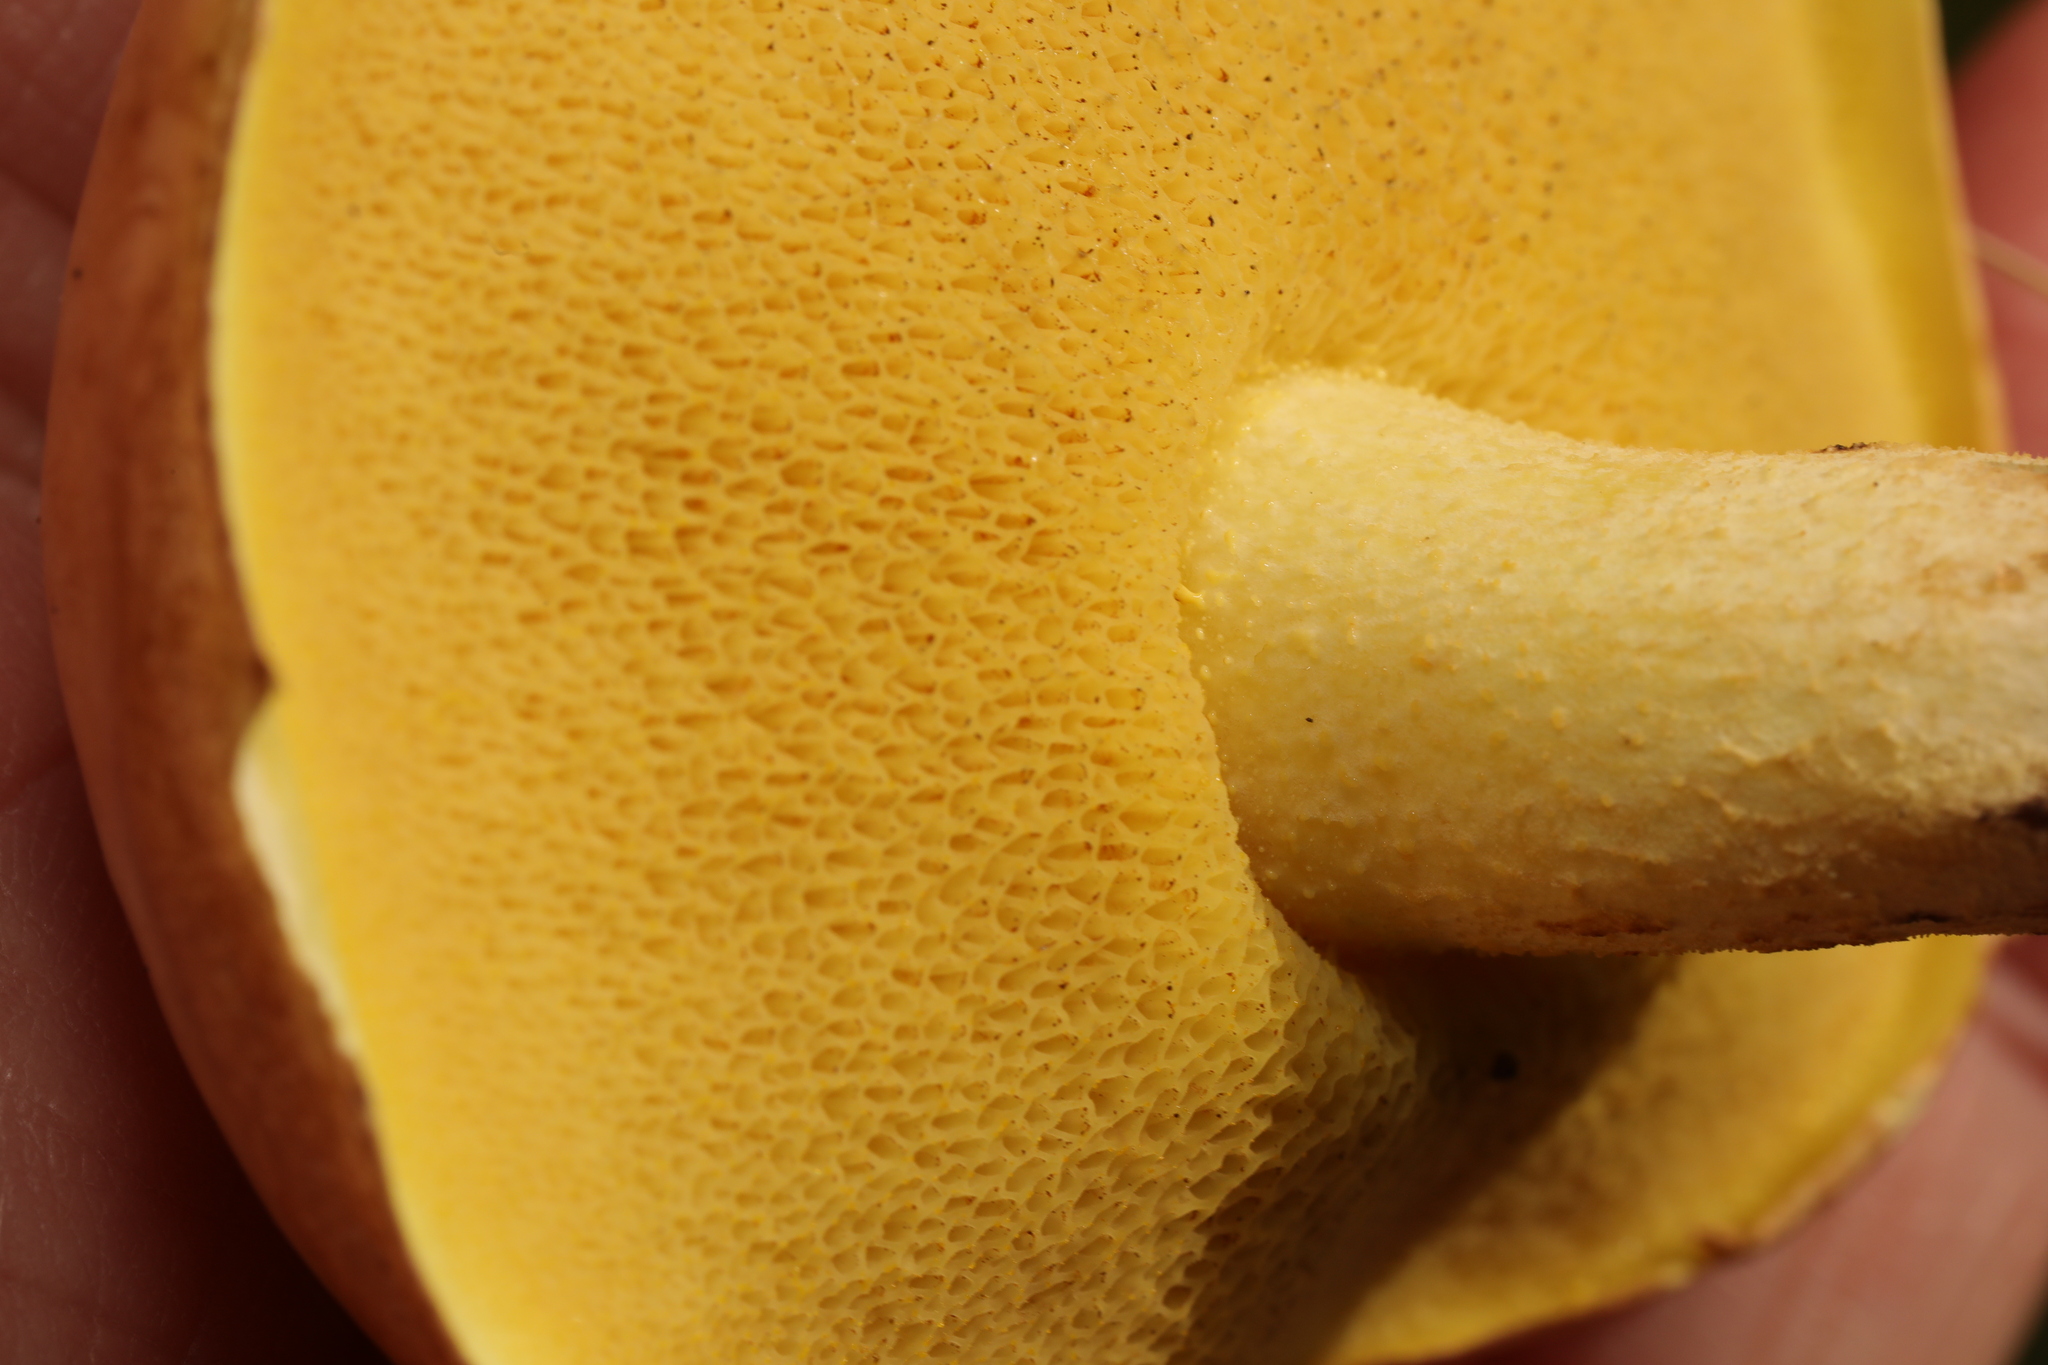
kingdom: Fungi
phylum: Basidiomycota
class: Agaricomycetes
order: Boletales
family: Suillaceae
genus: Suillus
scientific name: Suillus granulatus
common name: Weeping bolete
